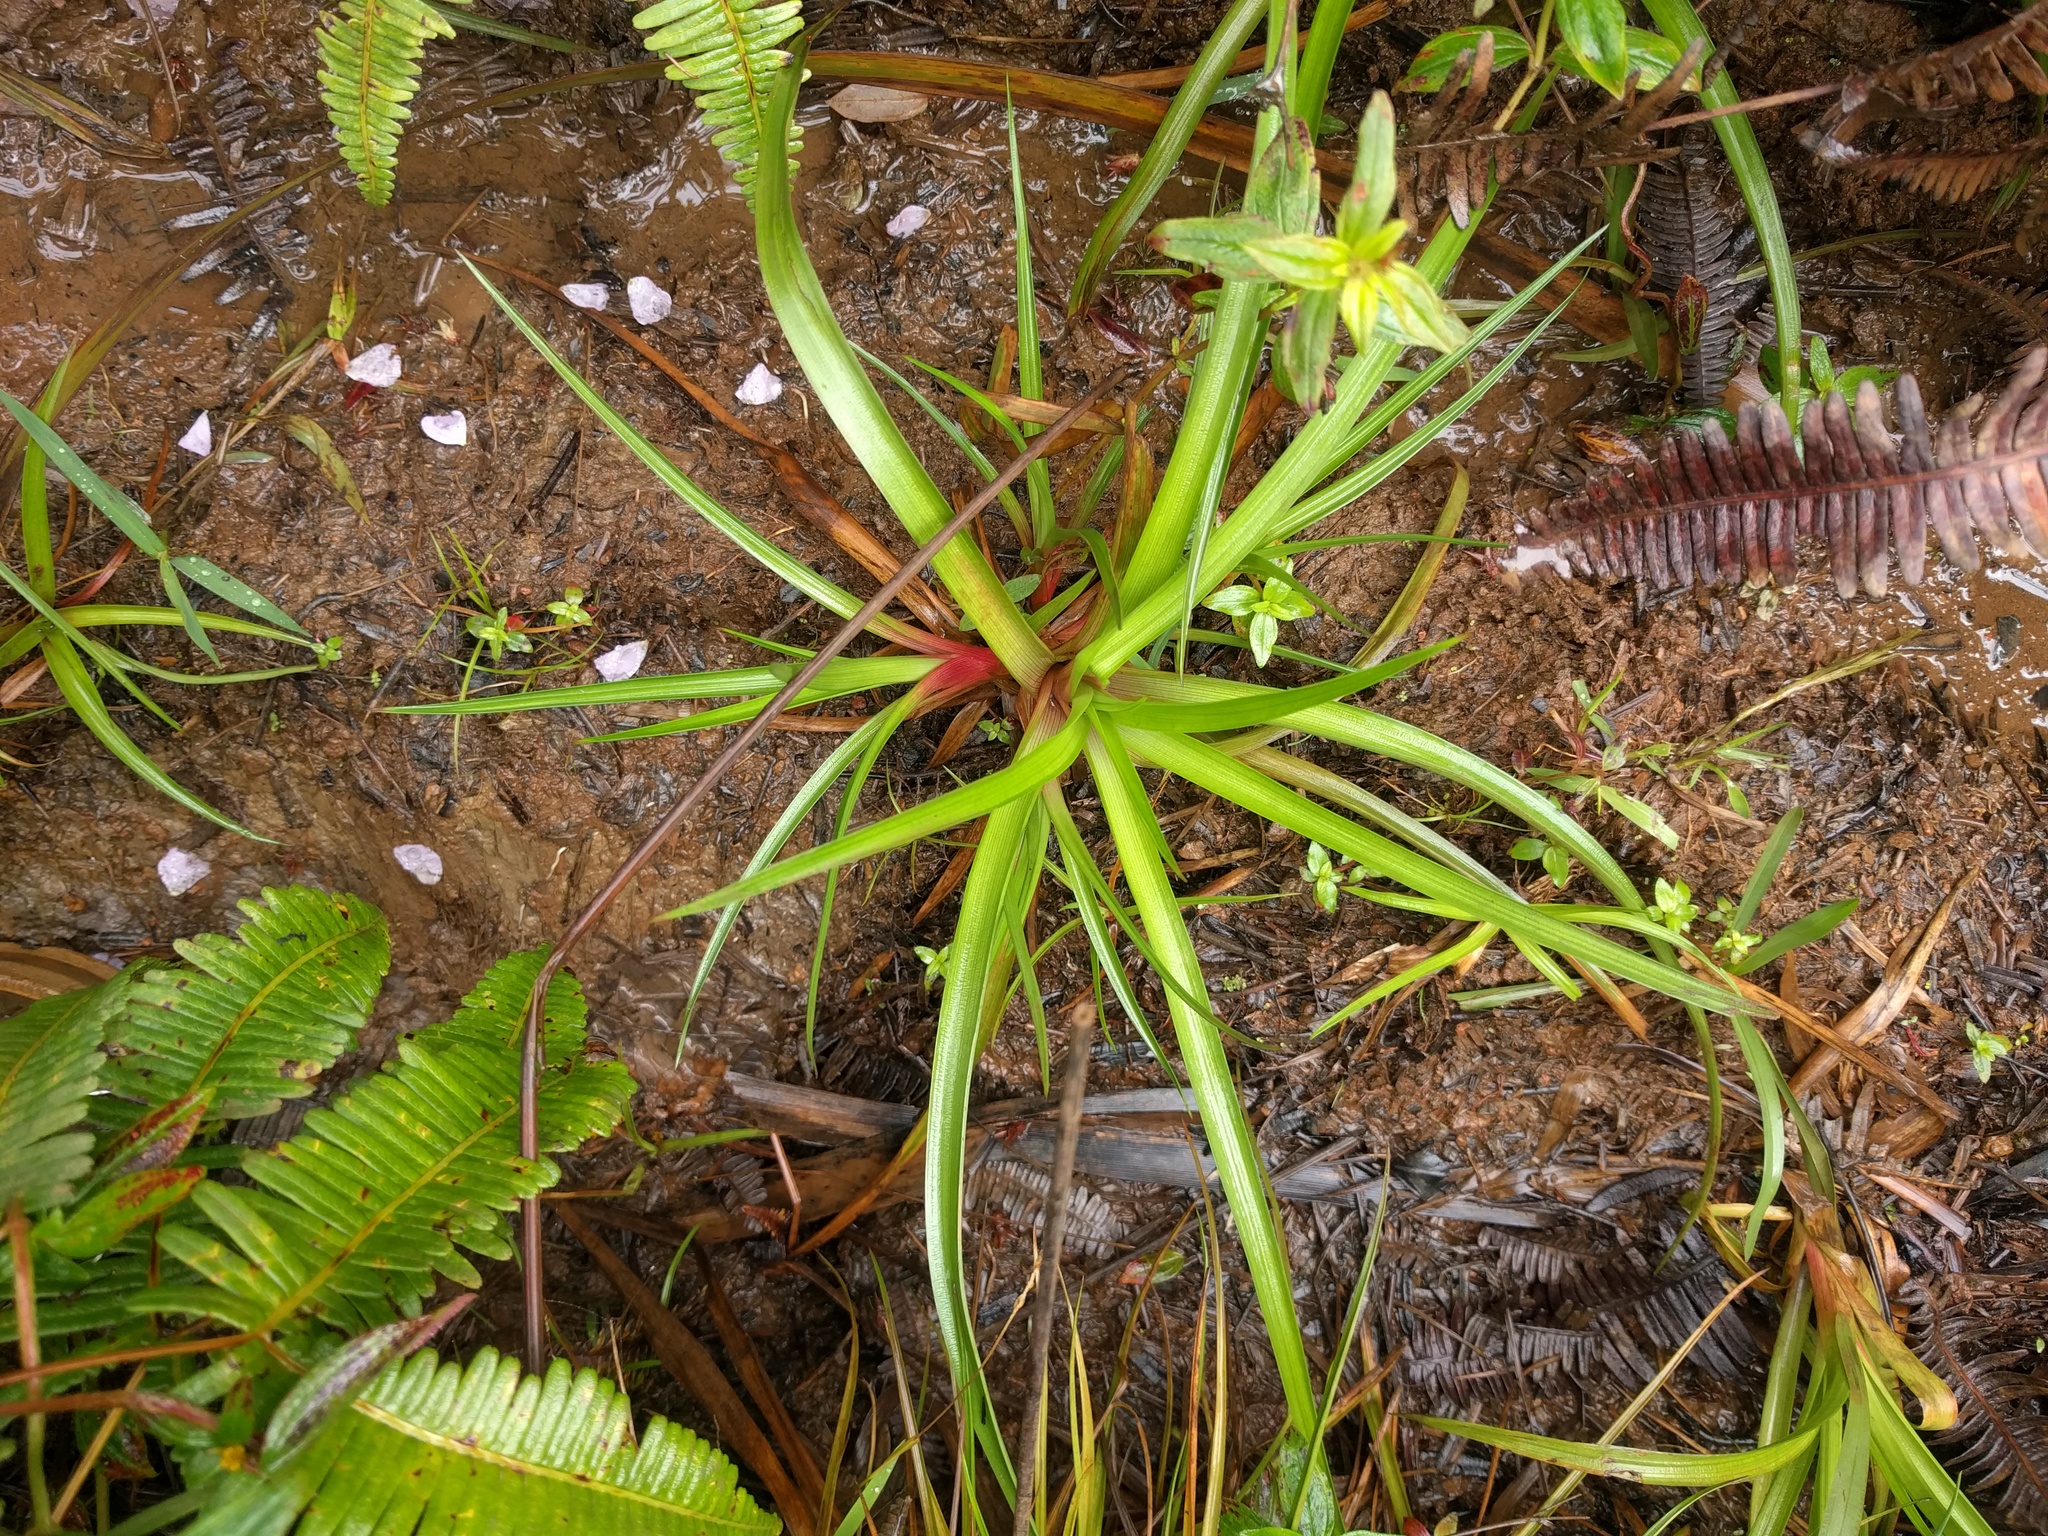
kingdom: Plantae
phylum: Tracheophyta
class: Liliopsida
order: Poales
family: Juncaceae
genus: Juncus
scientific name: Juncus planifolius
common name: Broadleaf rush
